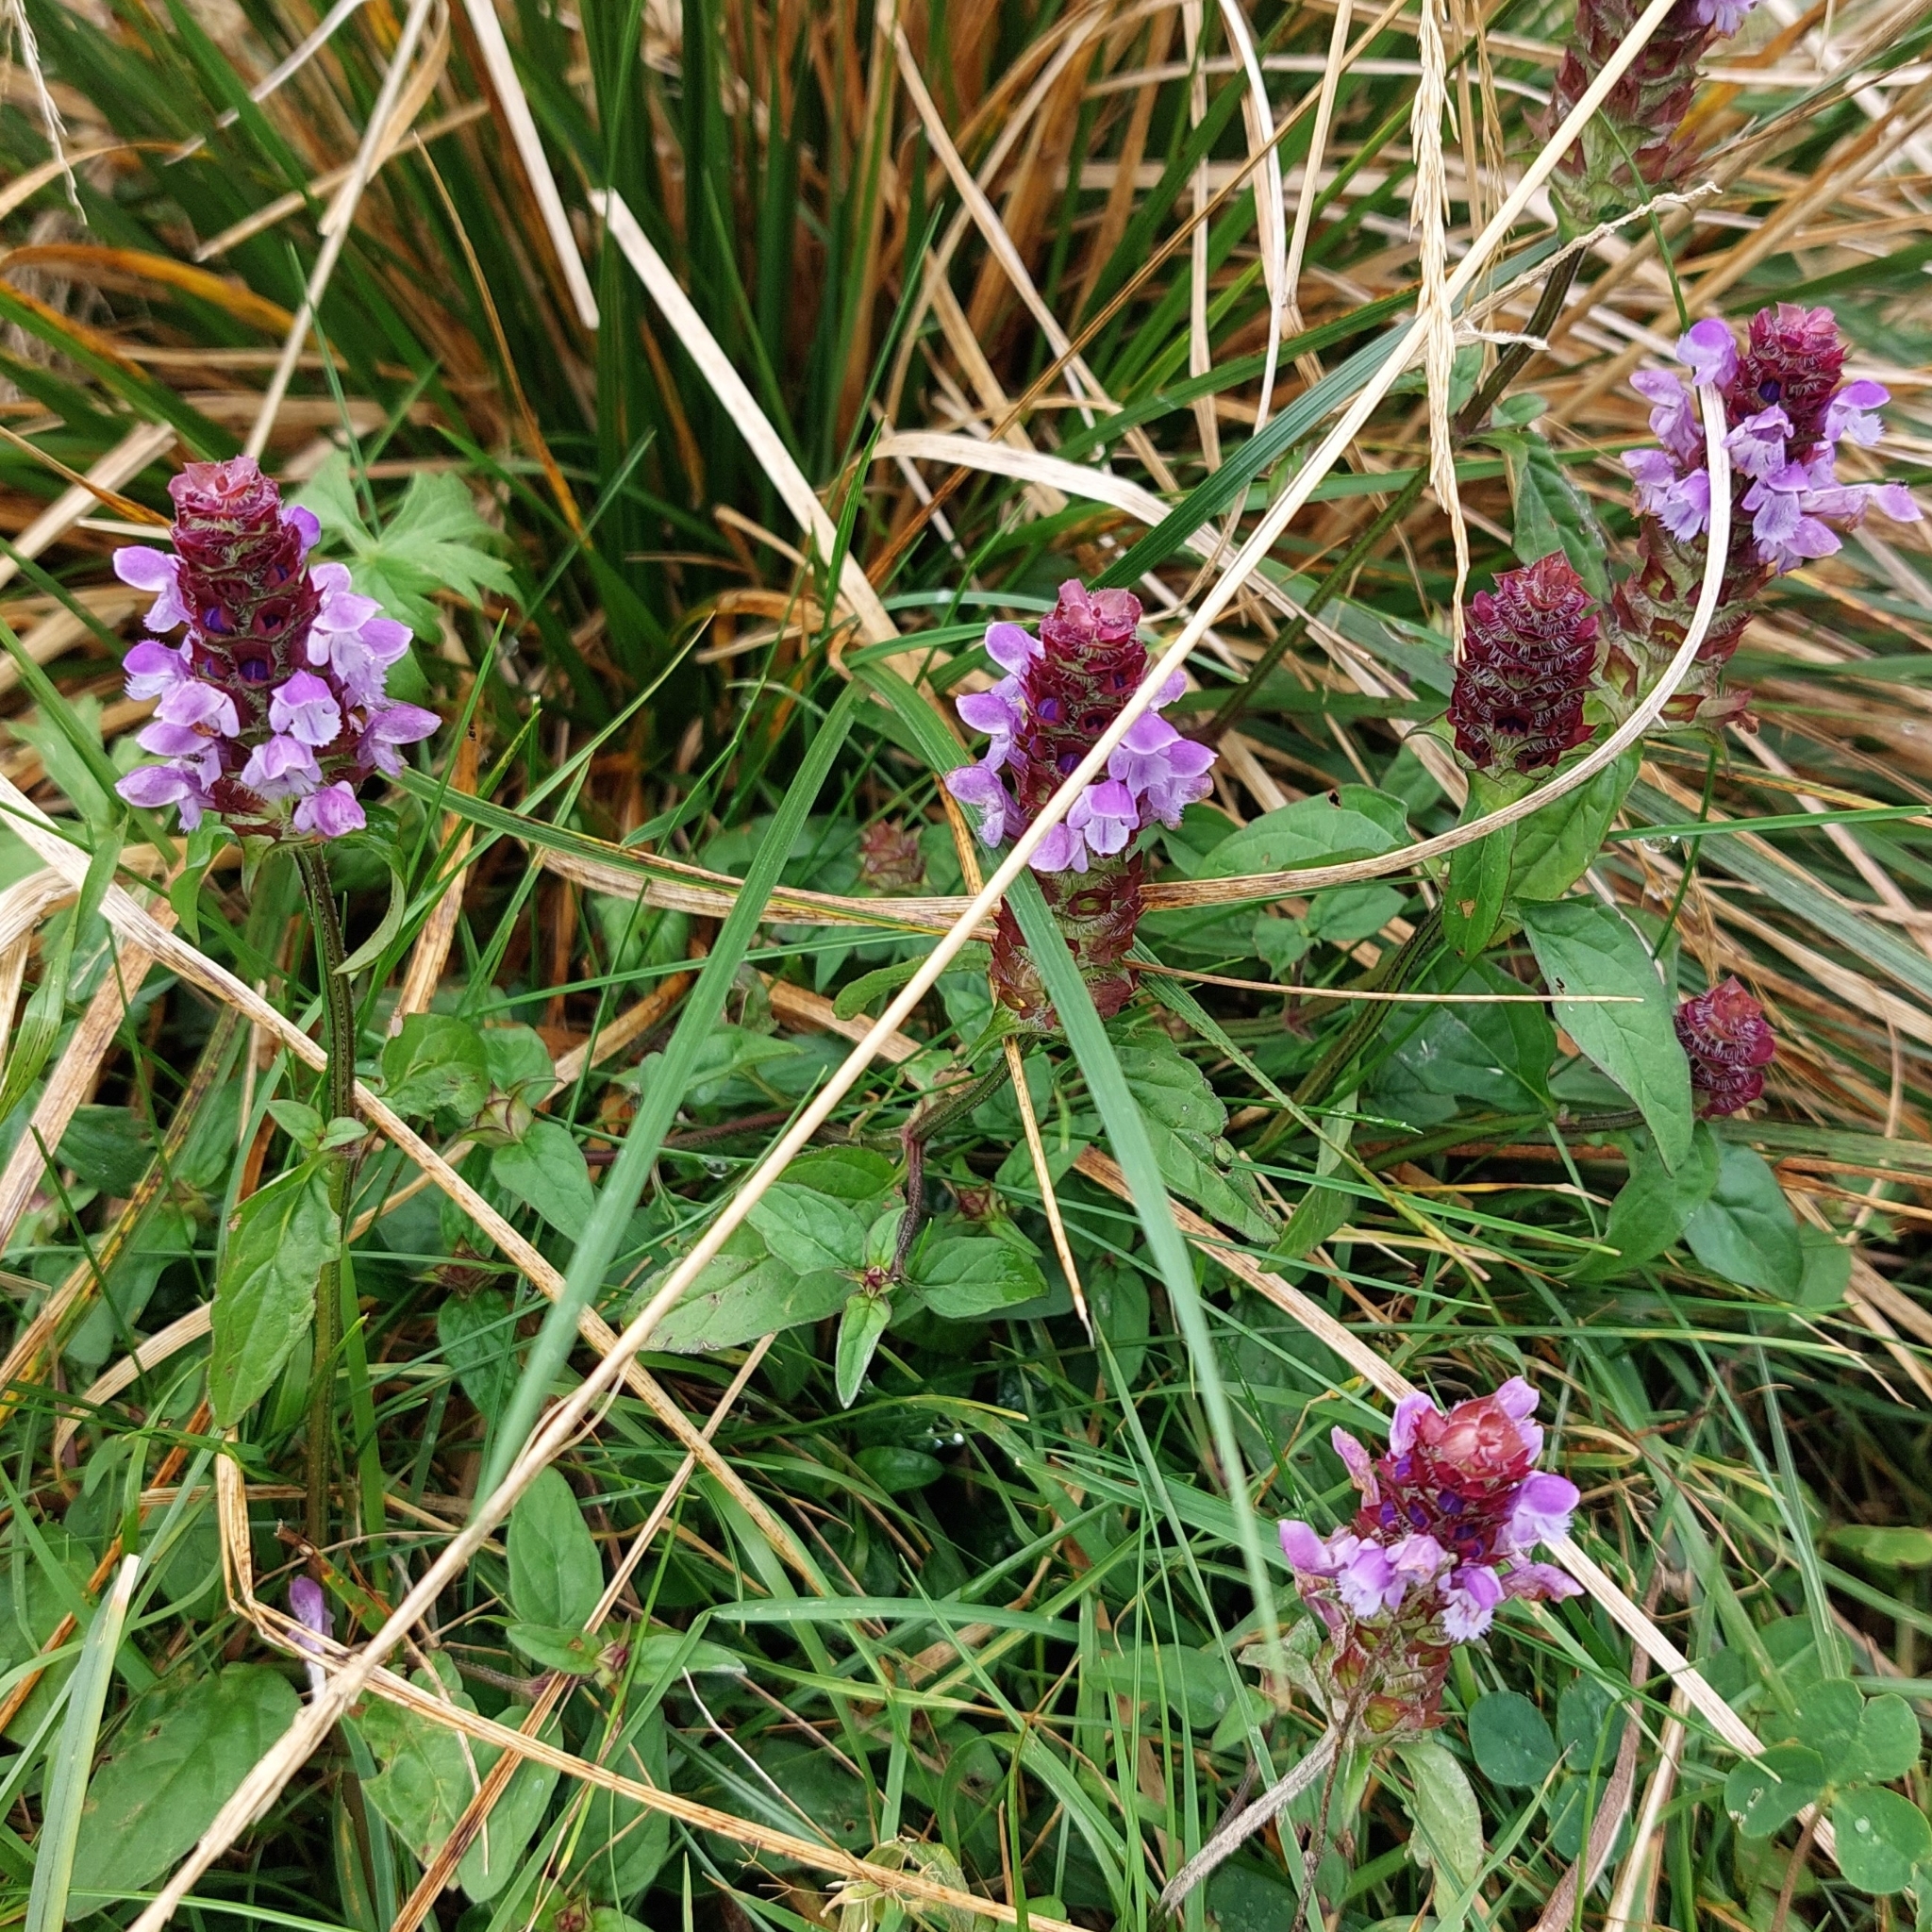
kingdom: Plantae
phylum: Tracheophyta
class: Magnoliopsida
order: Lamiales
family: Lamiaceae
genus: Prunella
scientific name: Prunella vulgaris
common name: Heal-all
